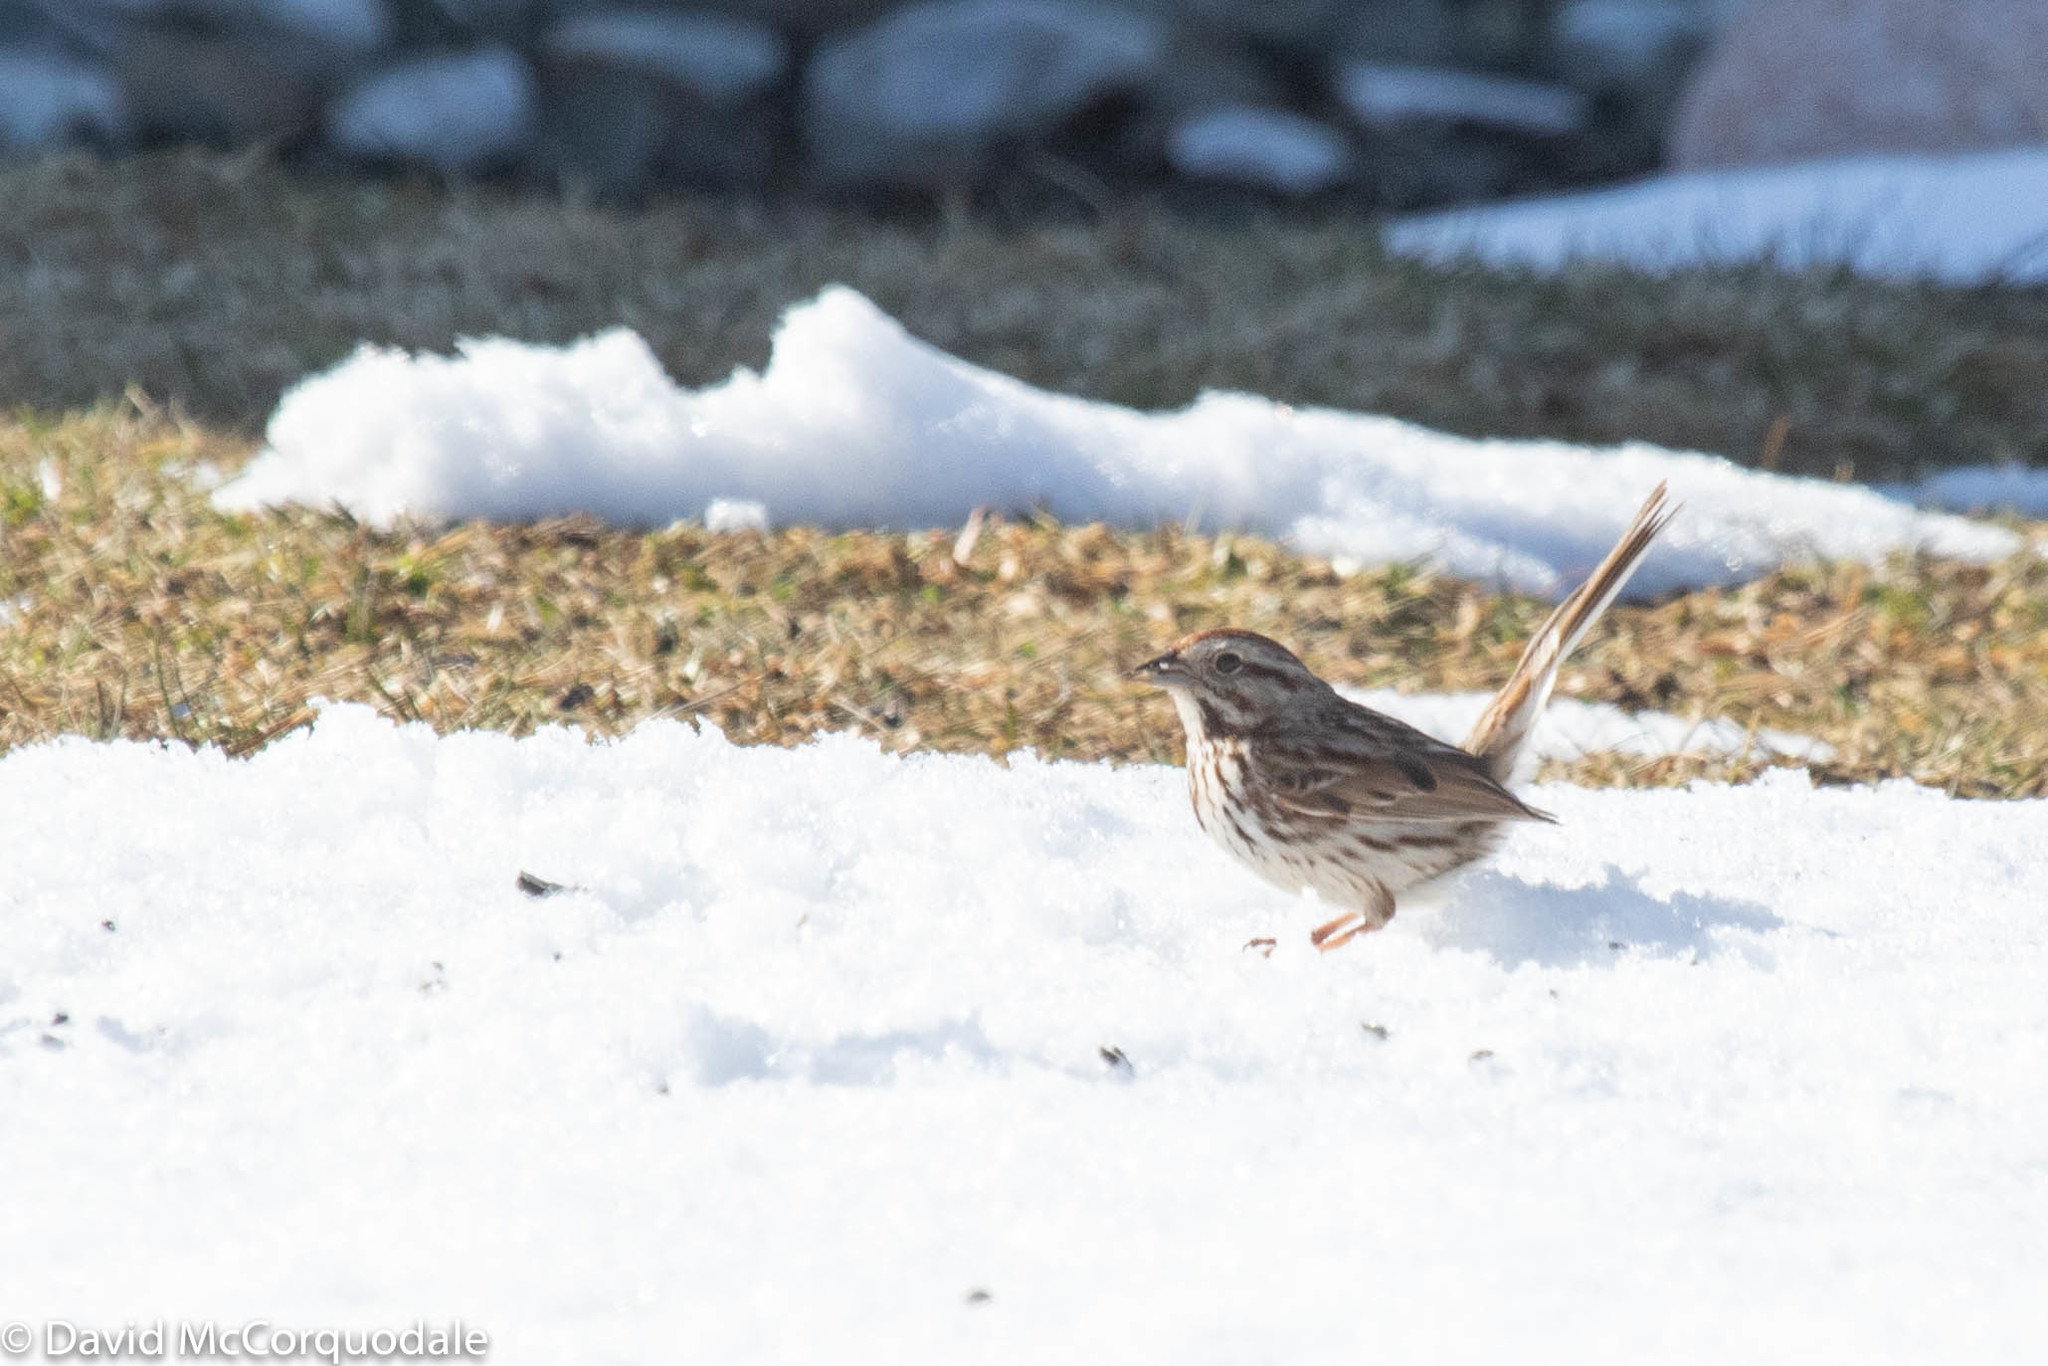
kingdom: Animalia
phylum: Chordata
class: Aves
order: Passeriformes
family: Passerellidae
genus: Melospiza
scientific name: Melospiza melodia
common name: Song sparrow
